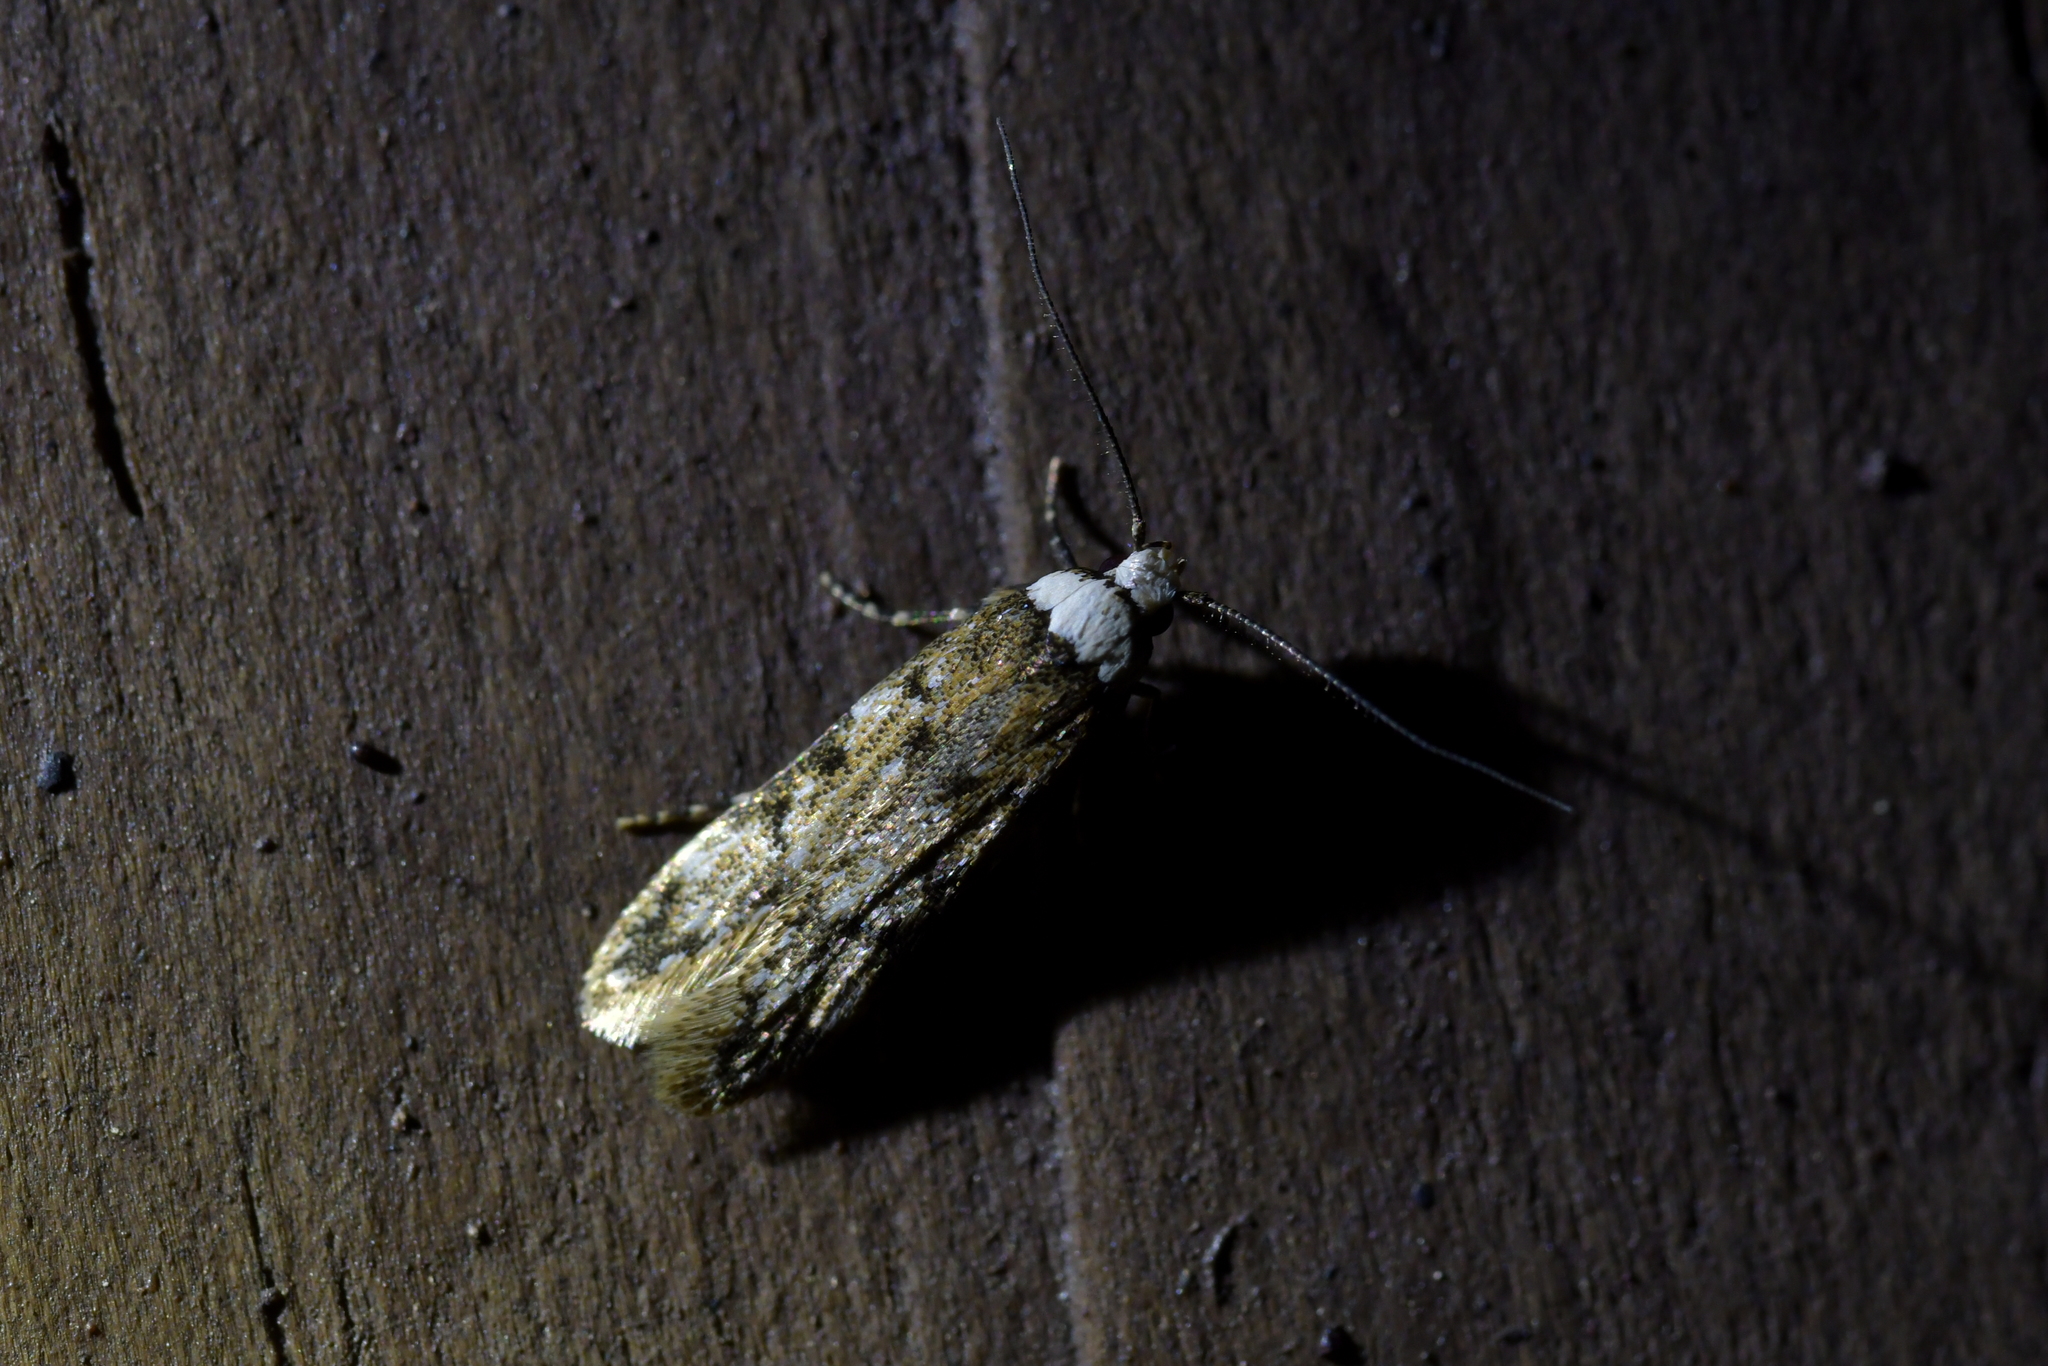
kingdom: Animalia
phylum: Arthropoda
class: Insecta
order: Lepidoptera
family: Oecophoridae
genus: Endrosis
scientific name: Endrosis sarcitrella
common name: White-shouldered house moth
